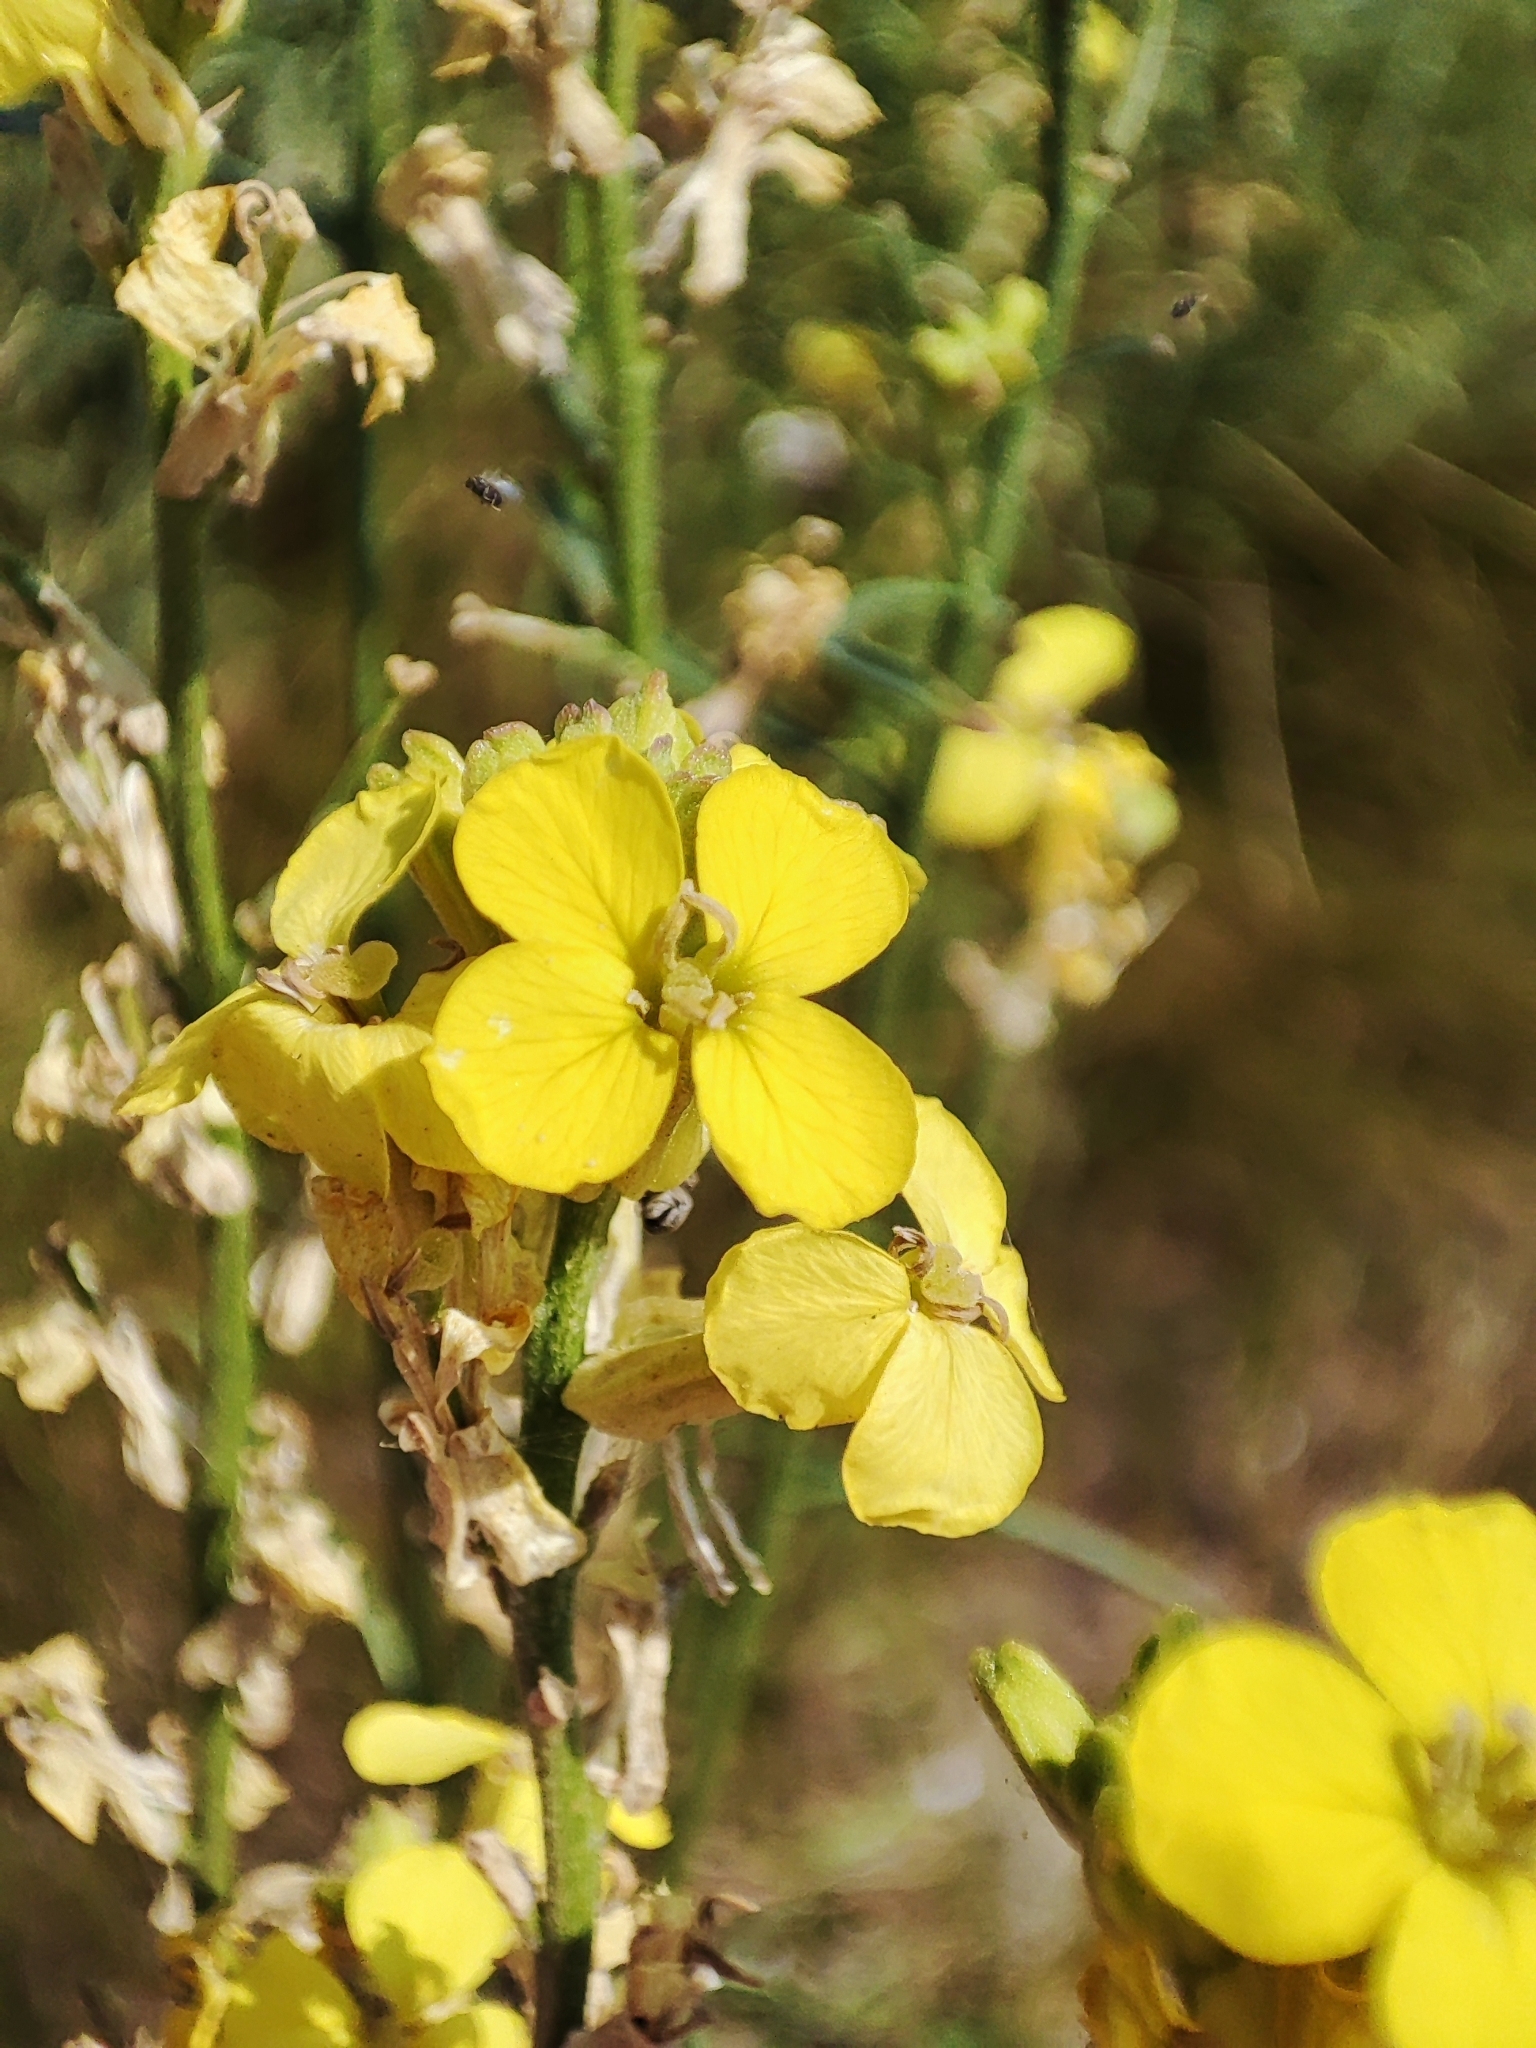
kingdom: Plantae
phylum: Tracheophyta
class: Magnoliopsida
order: Brassicales
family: Brassicaceae
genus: Erysimum
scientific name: Erysimum quadrangulum
